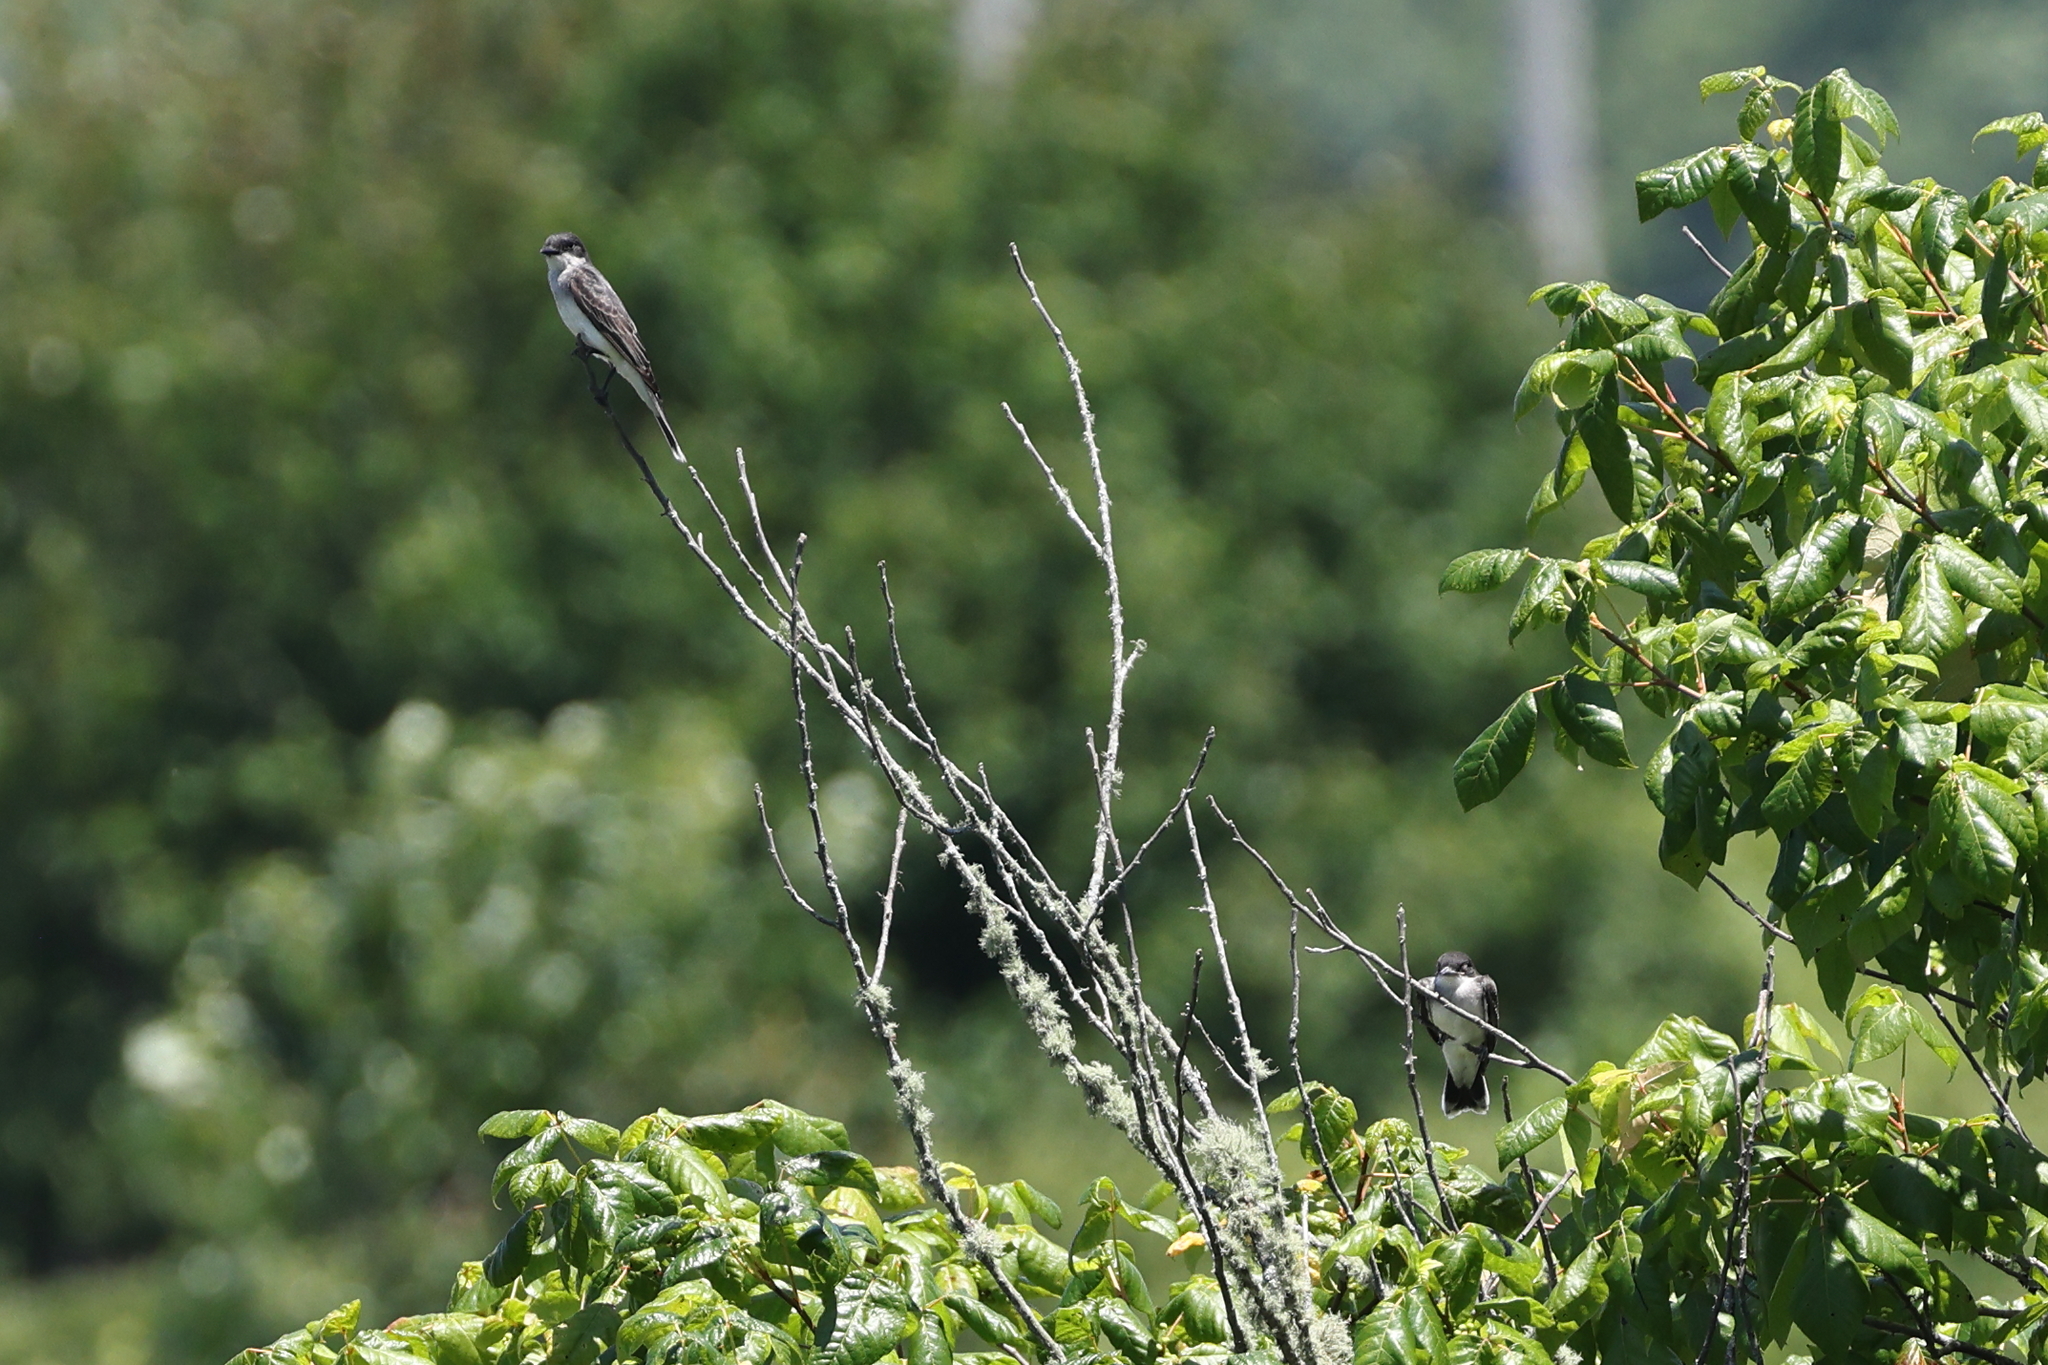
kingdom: Animalia
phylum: Chordata
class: Aves
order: Passeriformes
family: Tyrannidae
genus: Tyrannus
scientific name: Tyrannus tyrannus
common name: Eastern kingbird
